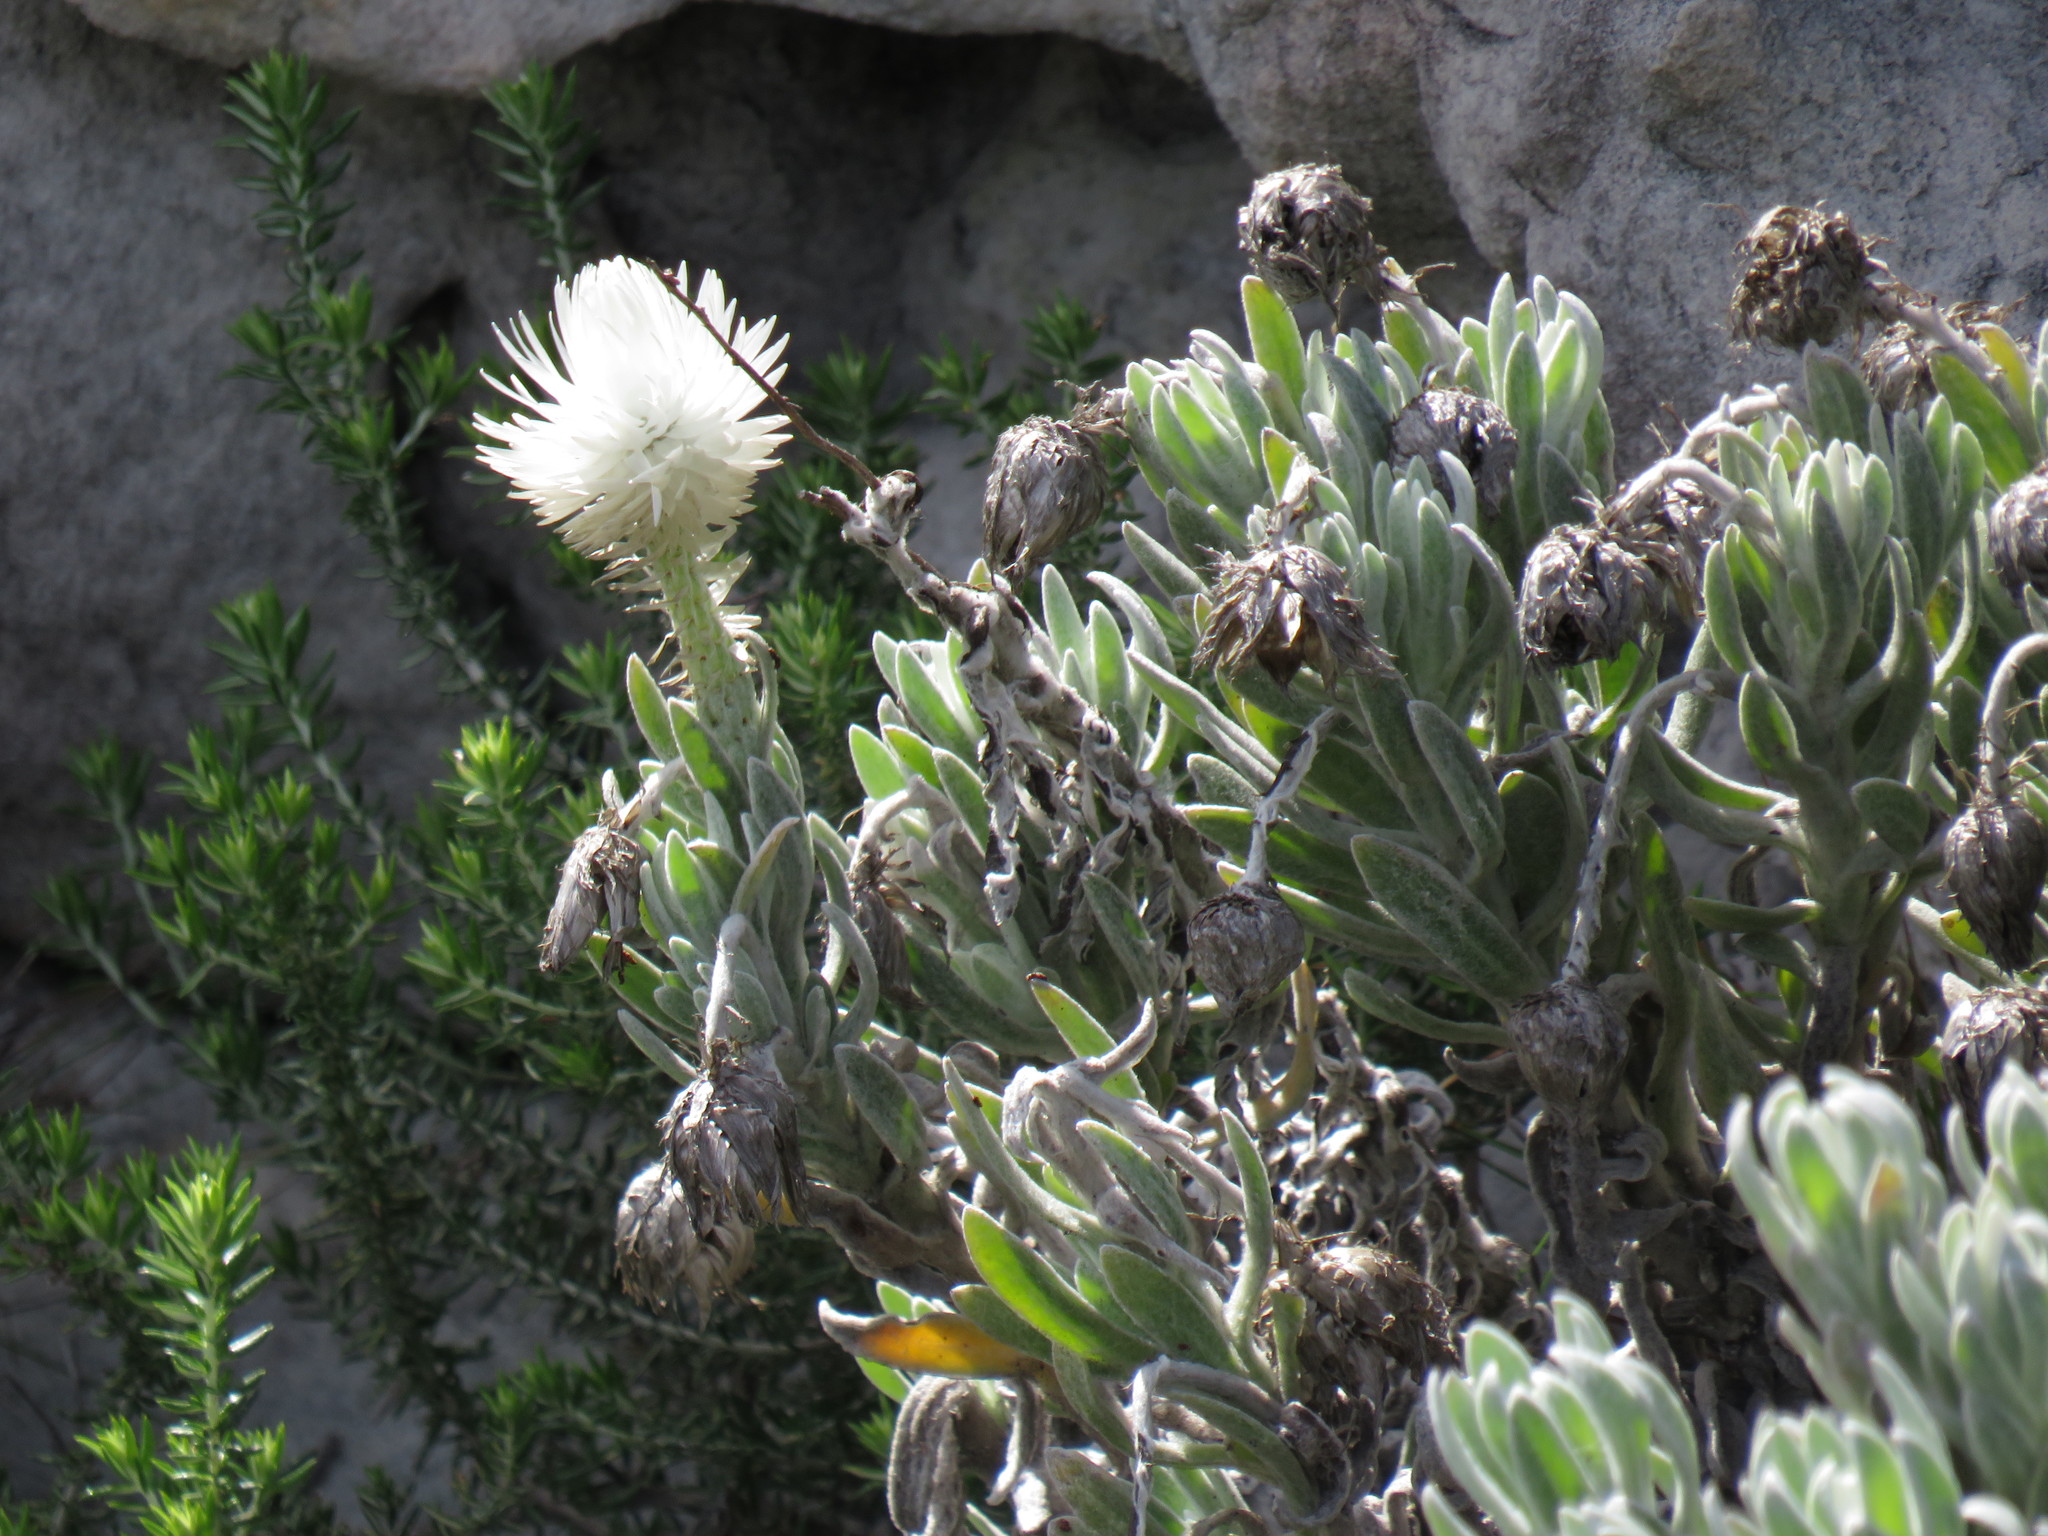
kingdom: Plantae
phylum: Tracheophyta
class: Magnoliopsida
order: Asterales
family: Asteraceae
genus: Syncarpha
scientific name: Syncarpha vestita
